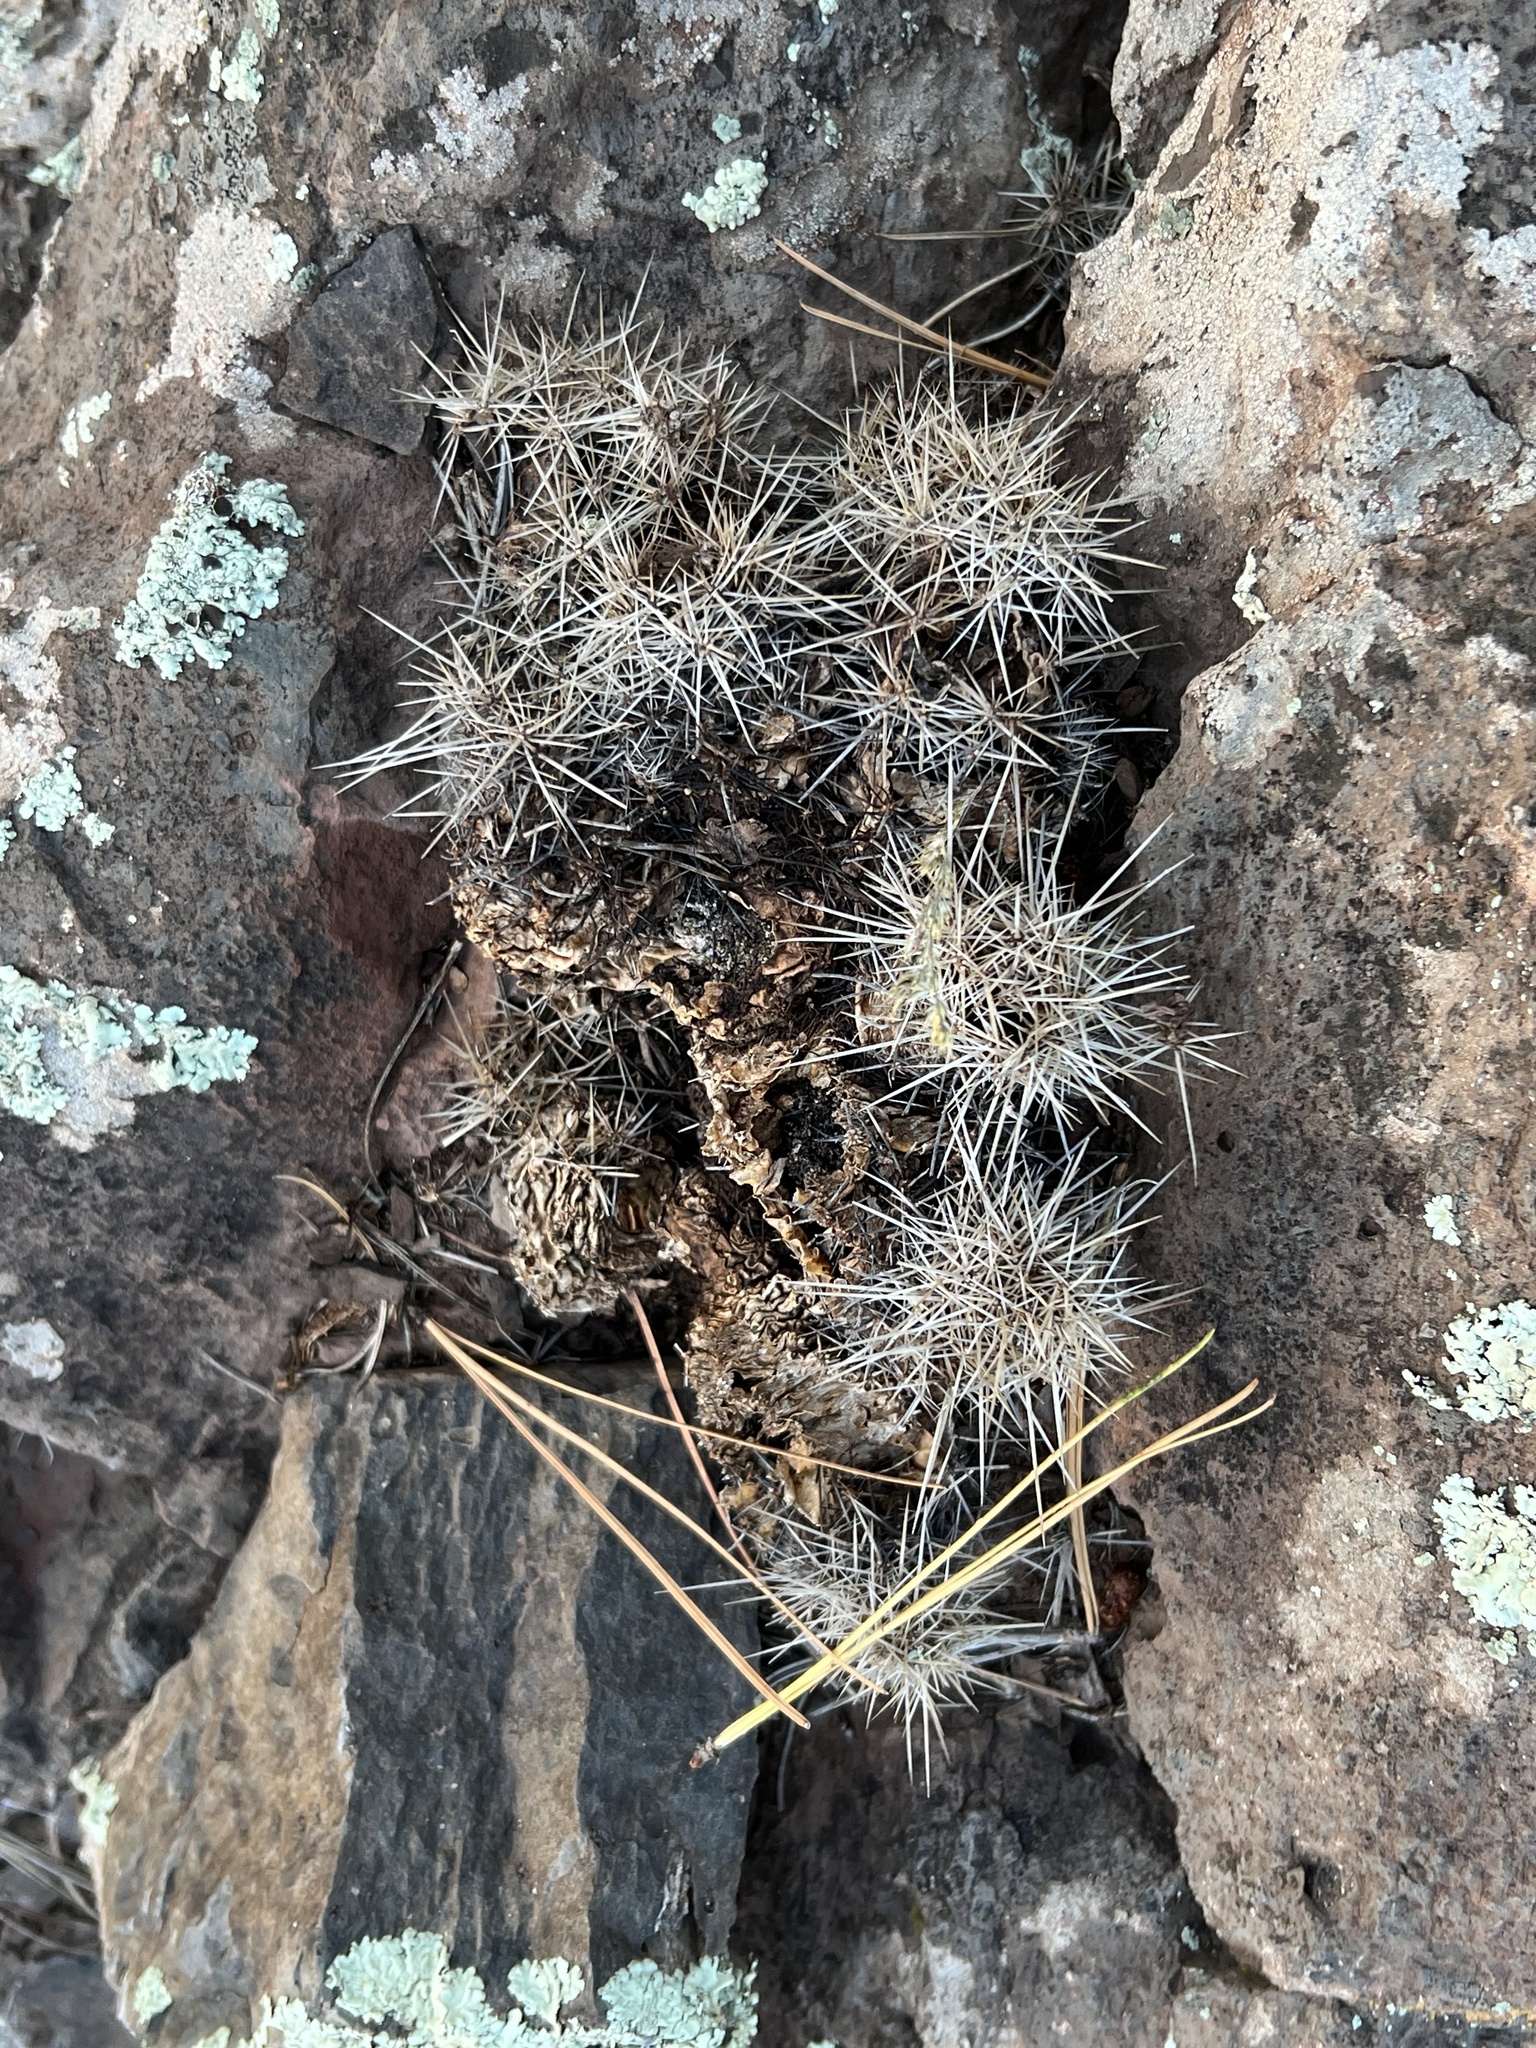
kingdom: Plantae
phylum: Tracheophyta
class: Magnoliopsida
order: Caryophyllales
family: Cactaceae
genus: Echinocereus
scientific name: Echinocereus bakeri
